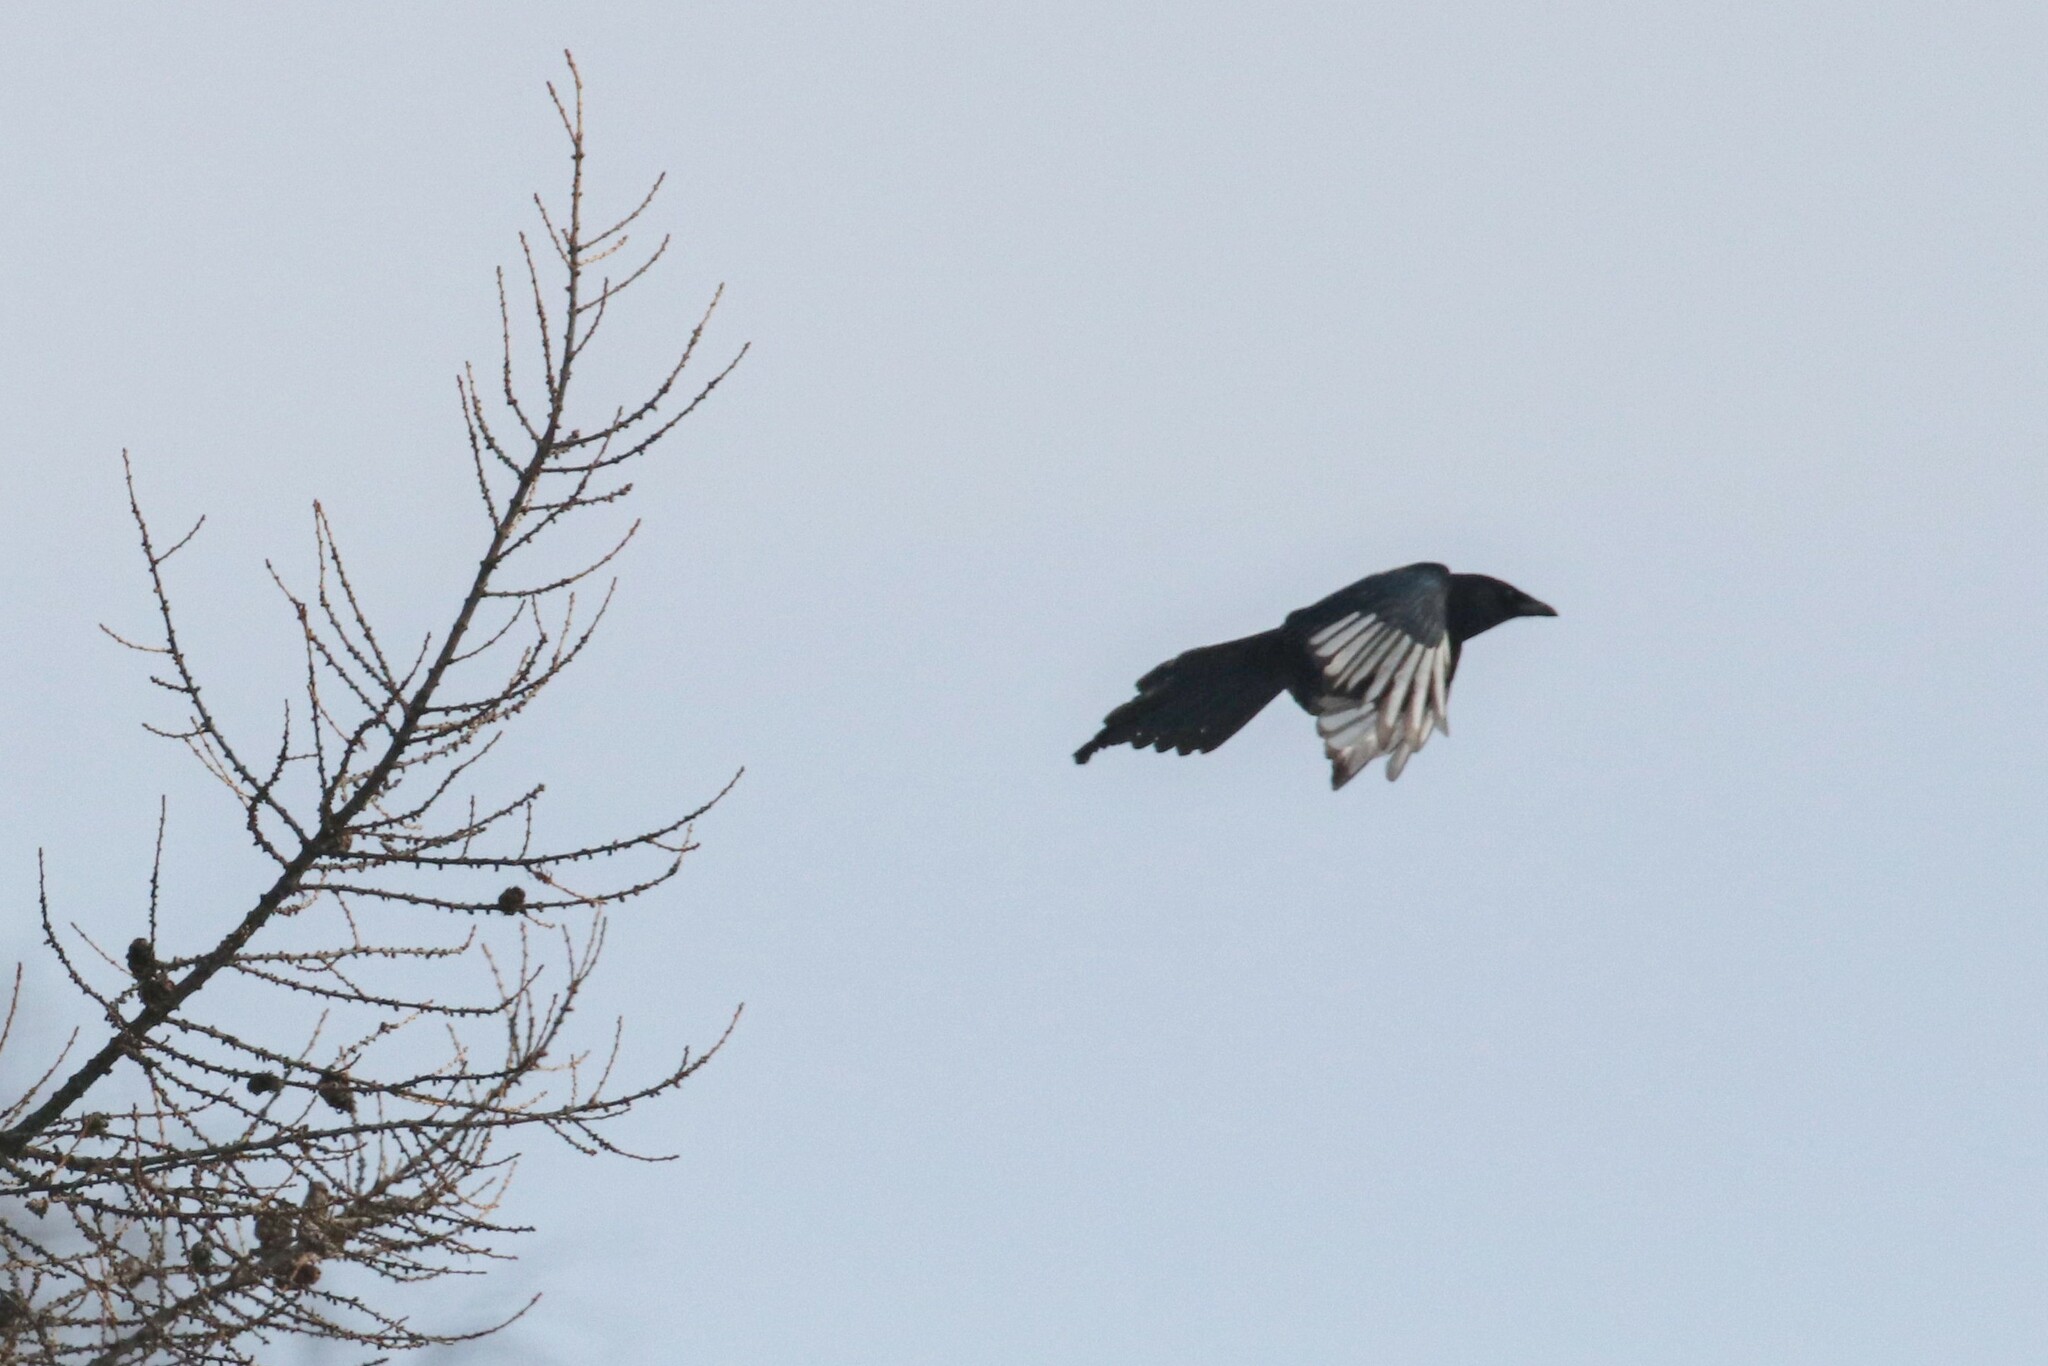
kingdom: Animalia
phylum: Chordata
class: Aves
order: Passeriformes
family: Corvidae
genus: Pica
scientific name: Pica pica
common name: Eurasian magpie
